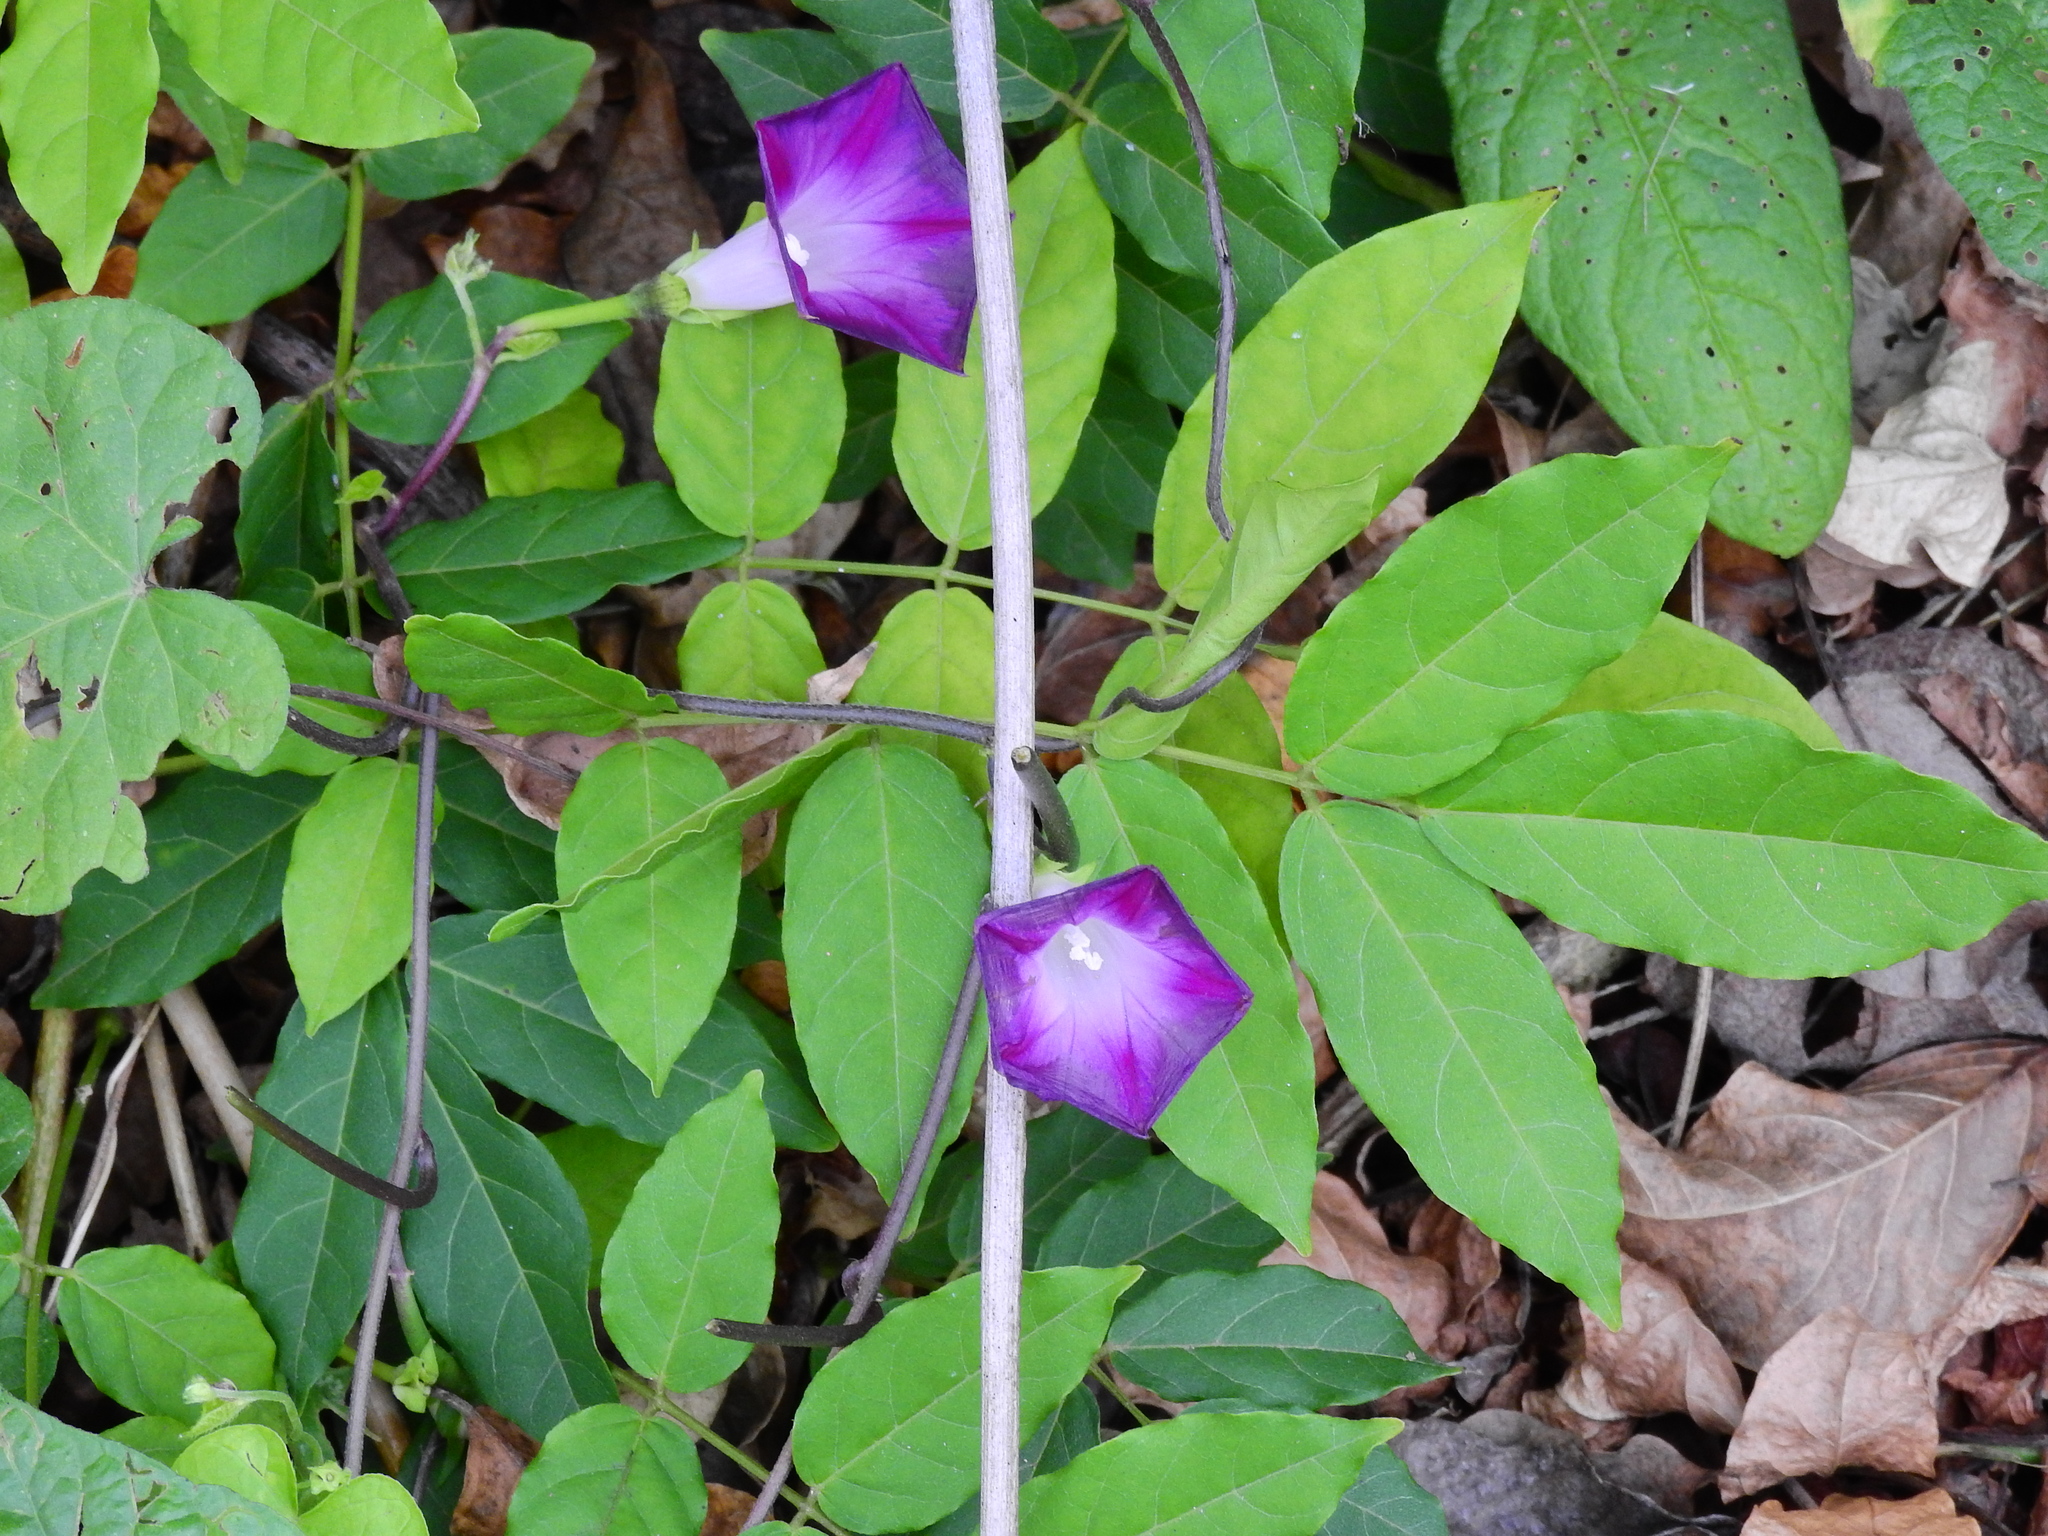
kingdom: Plantae
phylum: Tracheophyta
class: Magnoliopsida
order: Solanales
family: Convolvulaceae
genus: Ipomoea
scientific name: Ipomoea purpurea
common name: Common morning-glory
